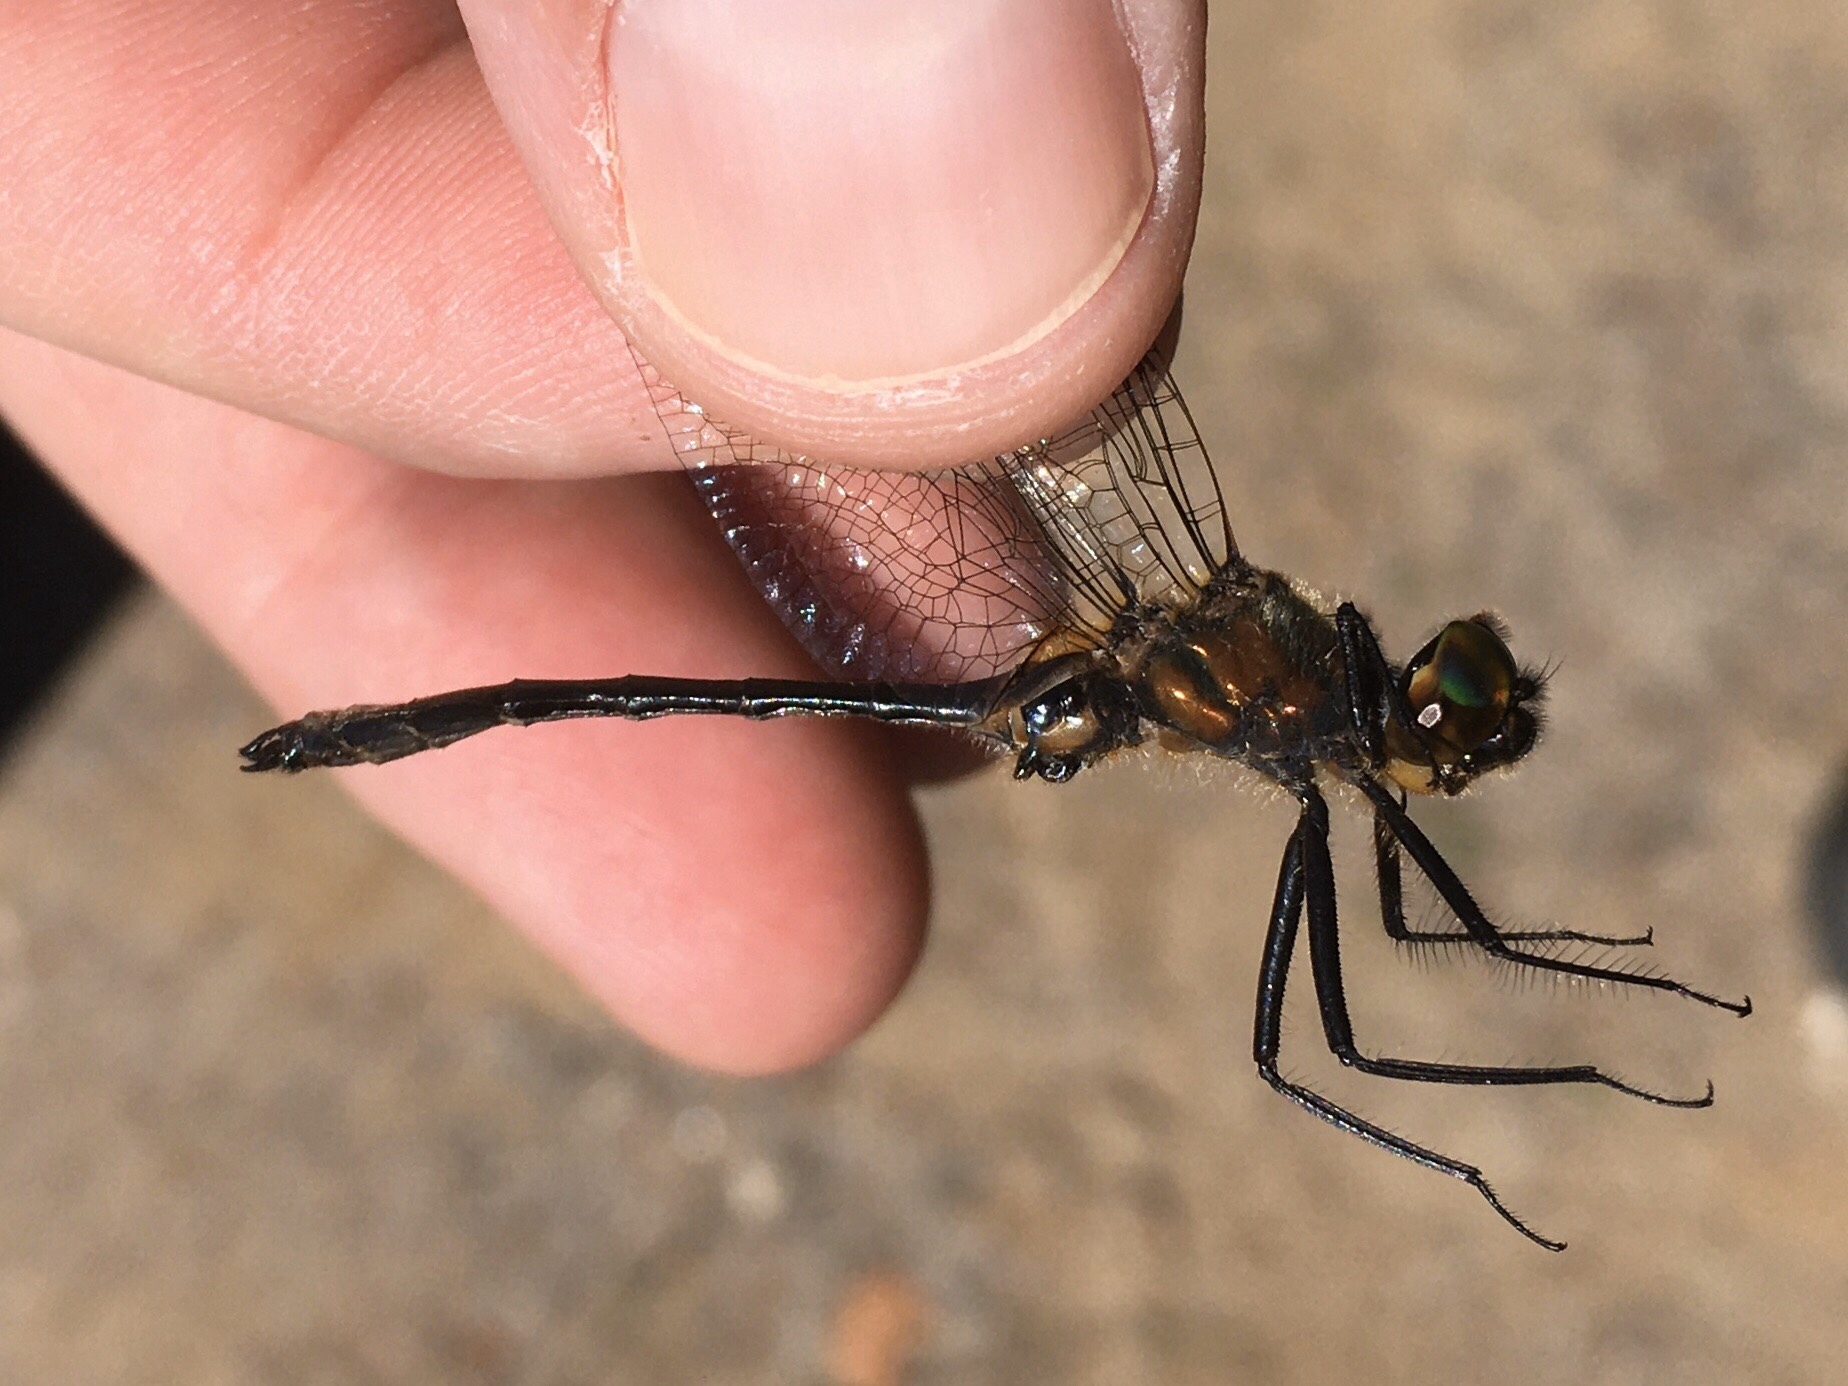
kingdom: Animalia
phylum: Arthropoda
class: Insecta
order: Odonata
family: Corduliidae
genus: Dorocordulia
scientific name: Dorocordulia libera
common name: Racket-tailed emerald
